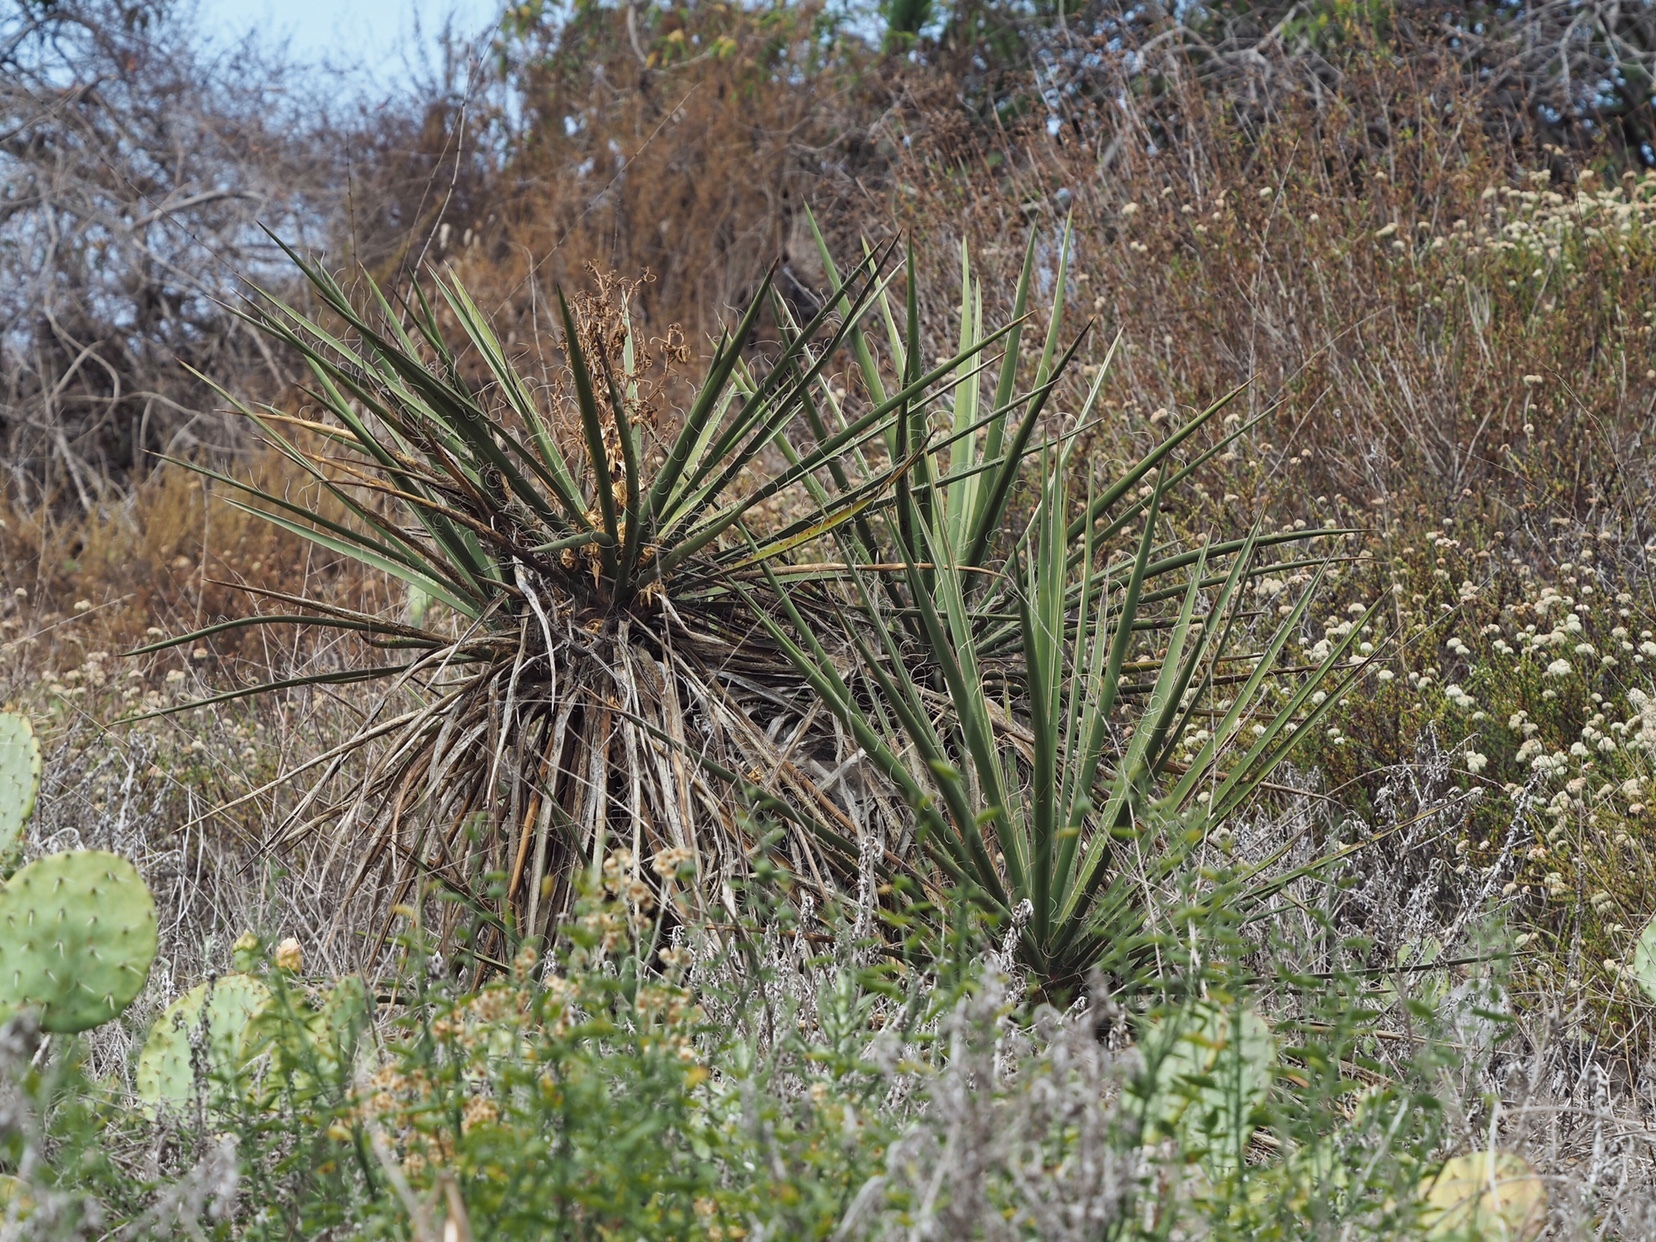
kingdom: Plantae
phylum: Tracheophyta
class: Liliopsida
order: Asparagales
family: Asparagaceae
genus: Yucca
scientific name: Yucca schidigera
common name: Mojave yucca
